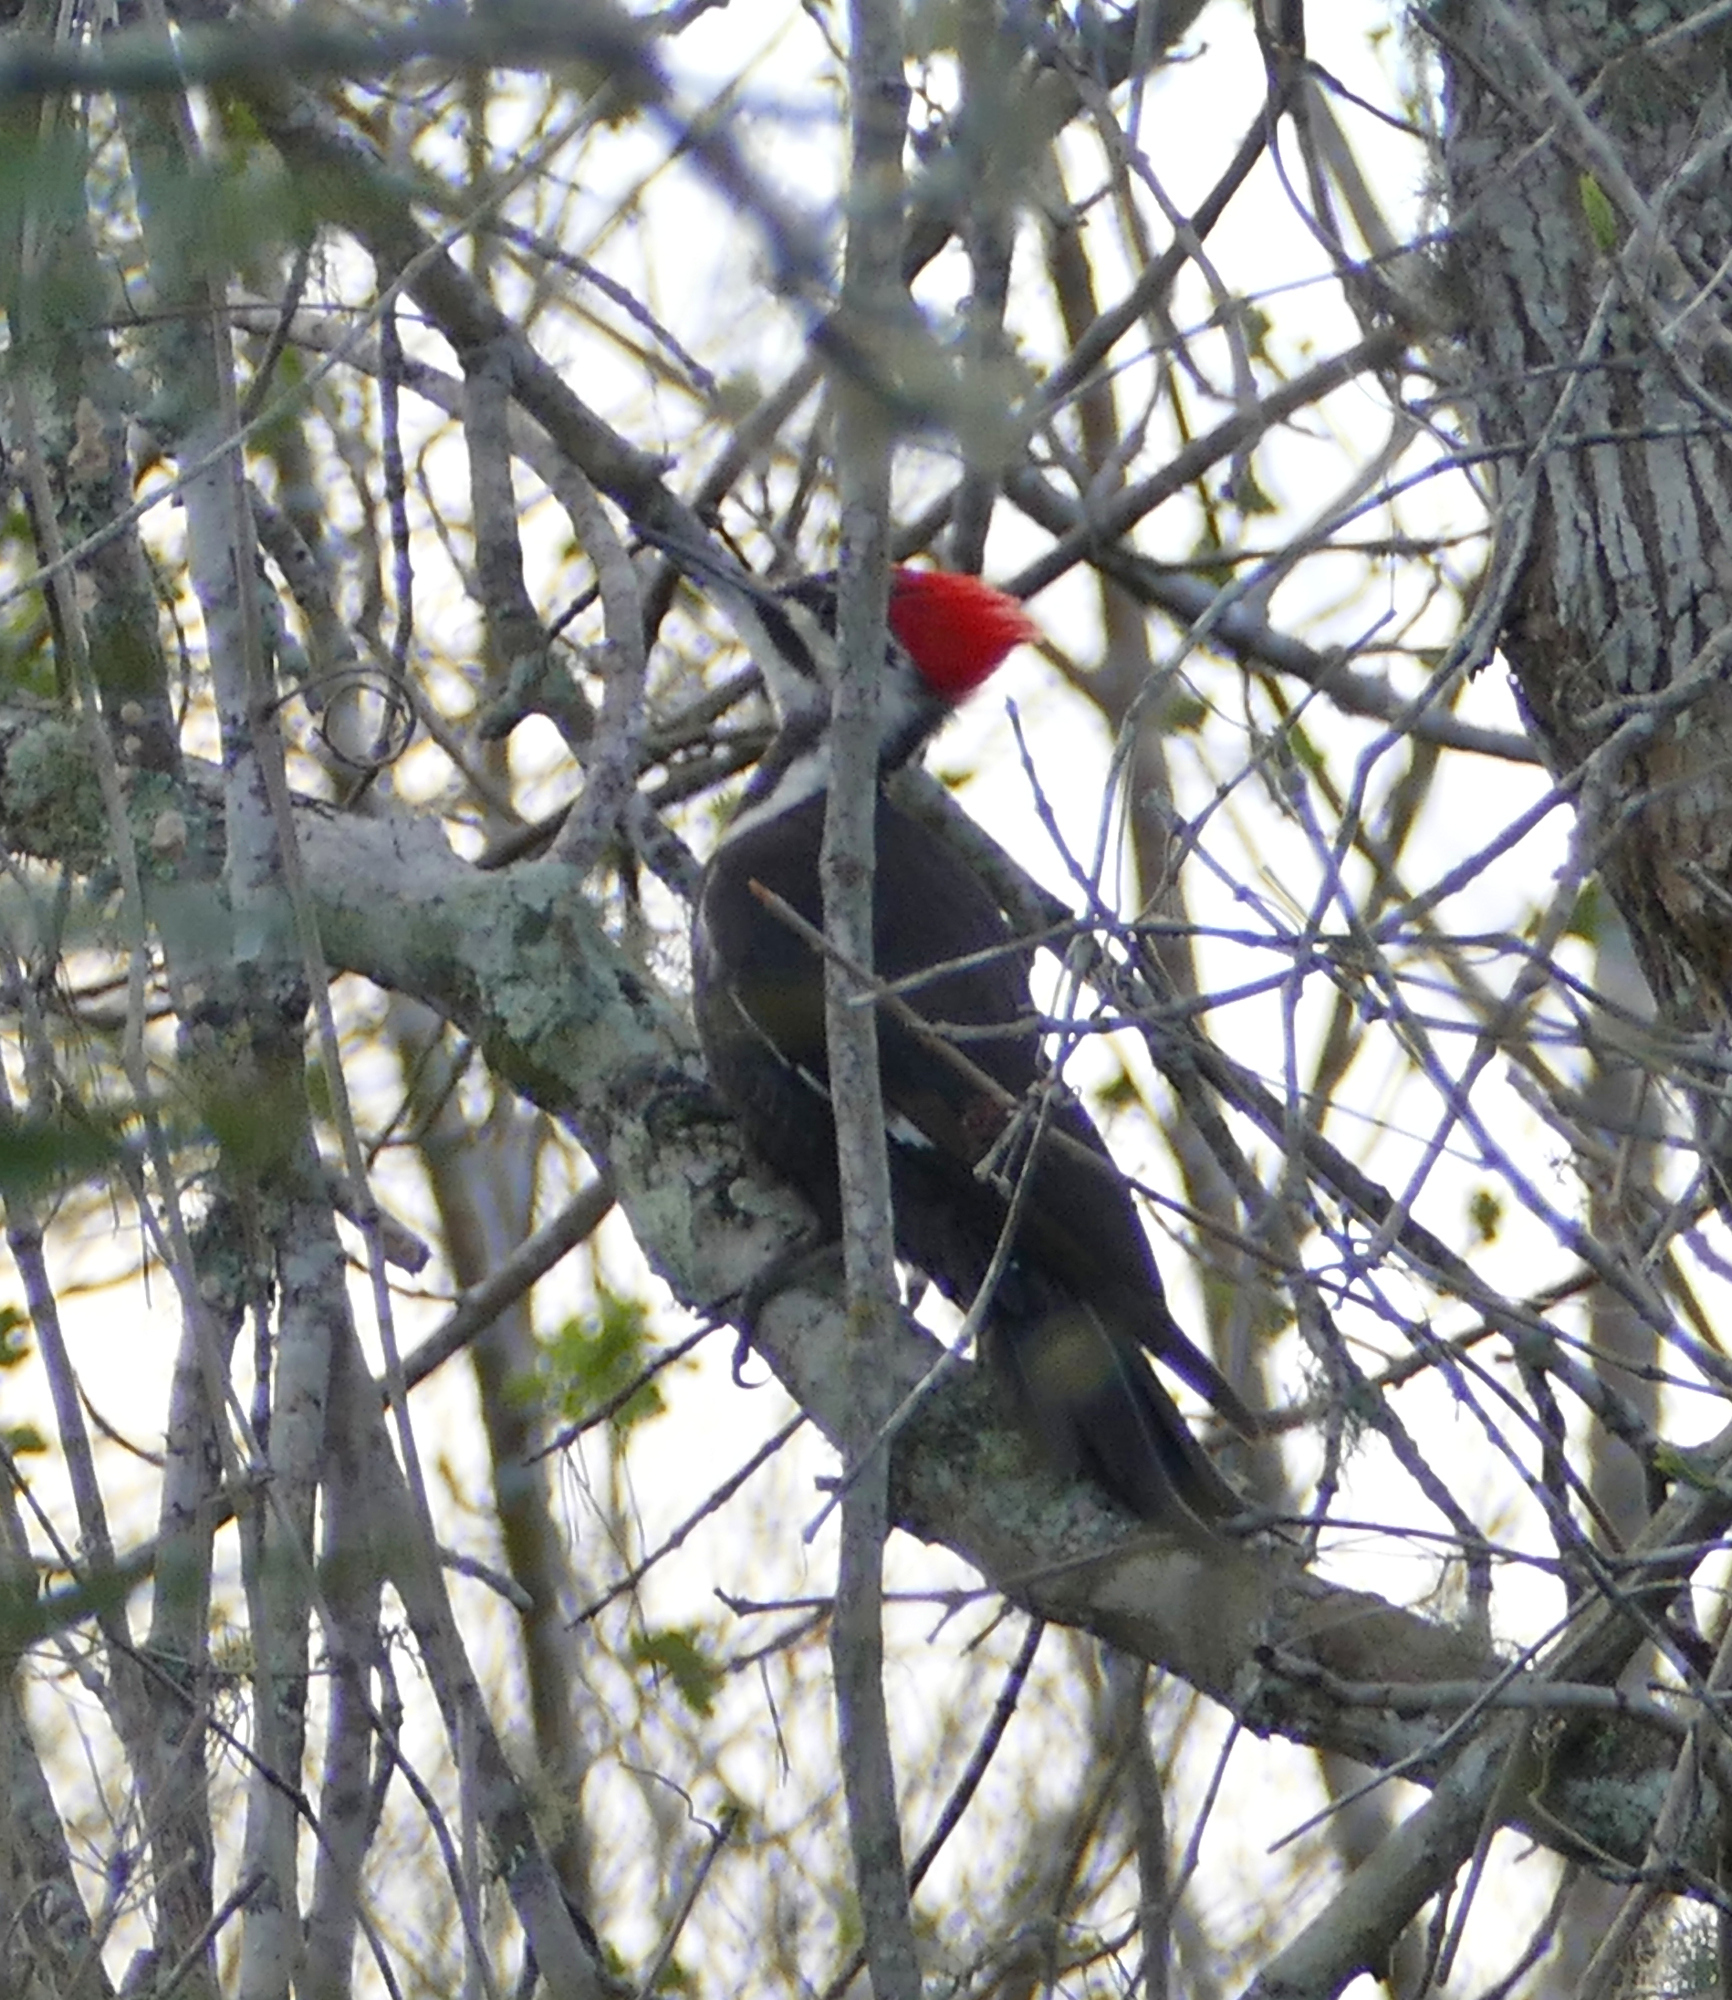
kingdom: Animalia
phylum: Chordata
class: Aves
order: Piciformes
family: Picidae
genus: Dryocopus
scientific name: Dryocopus pileatus
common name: Pileated woodpecker
